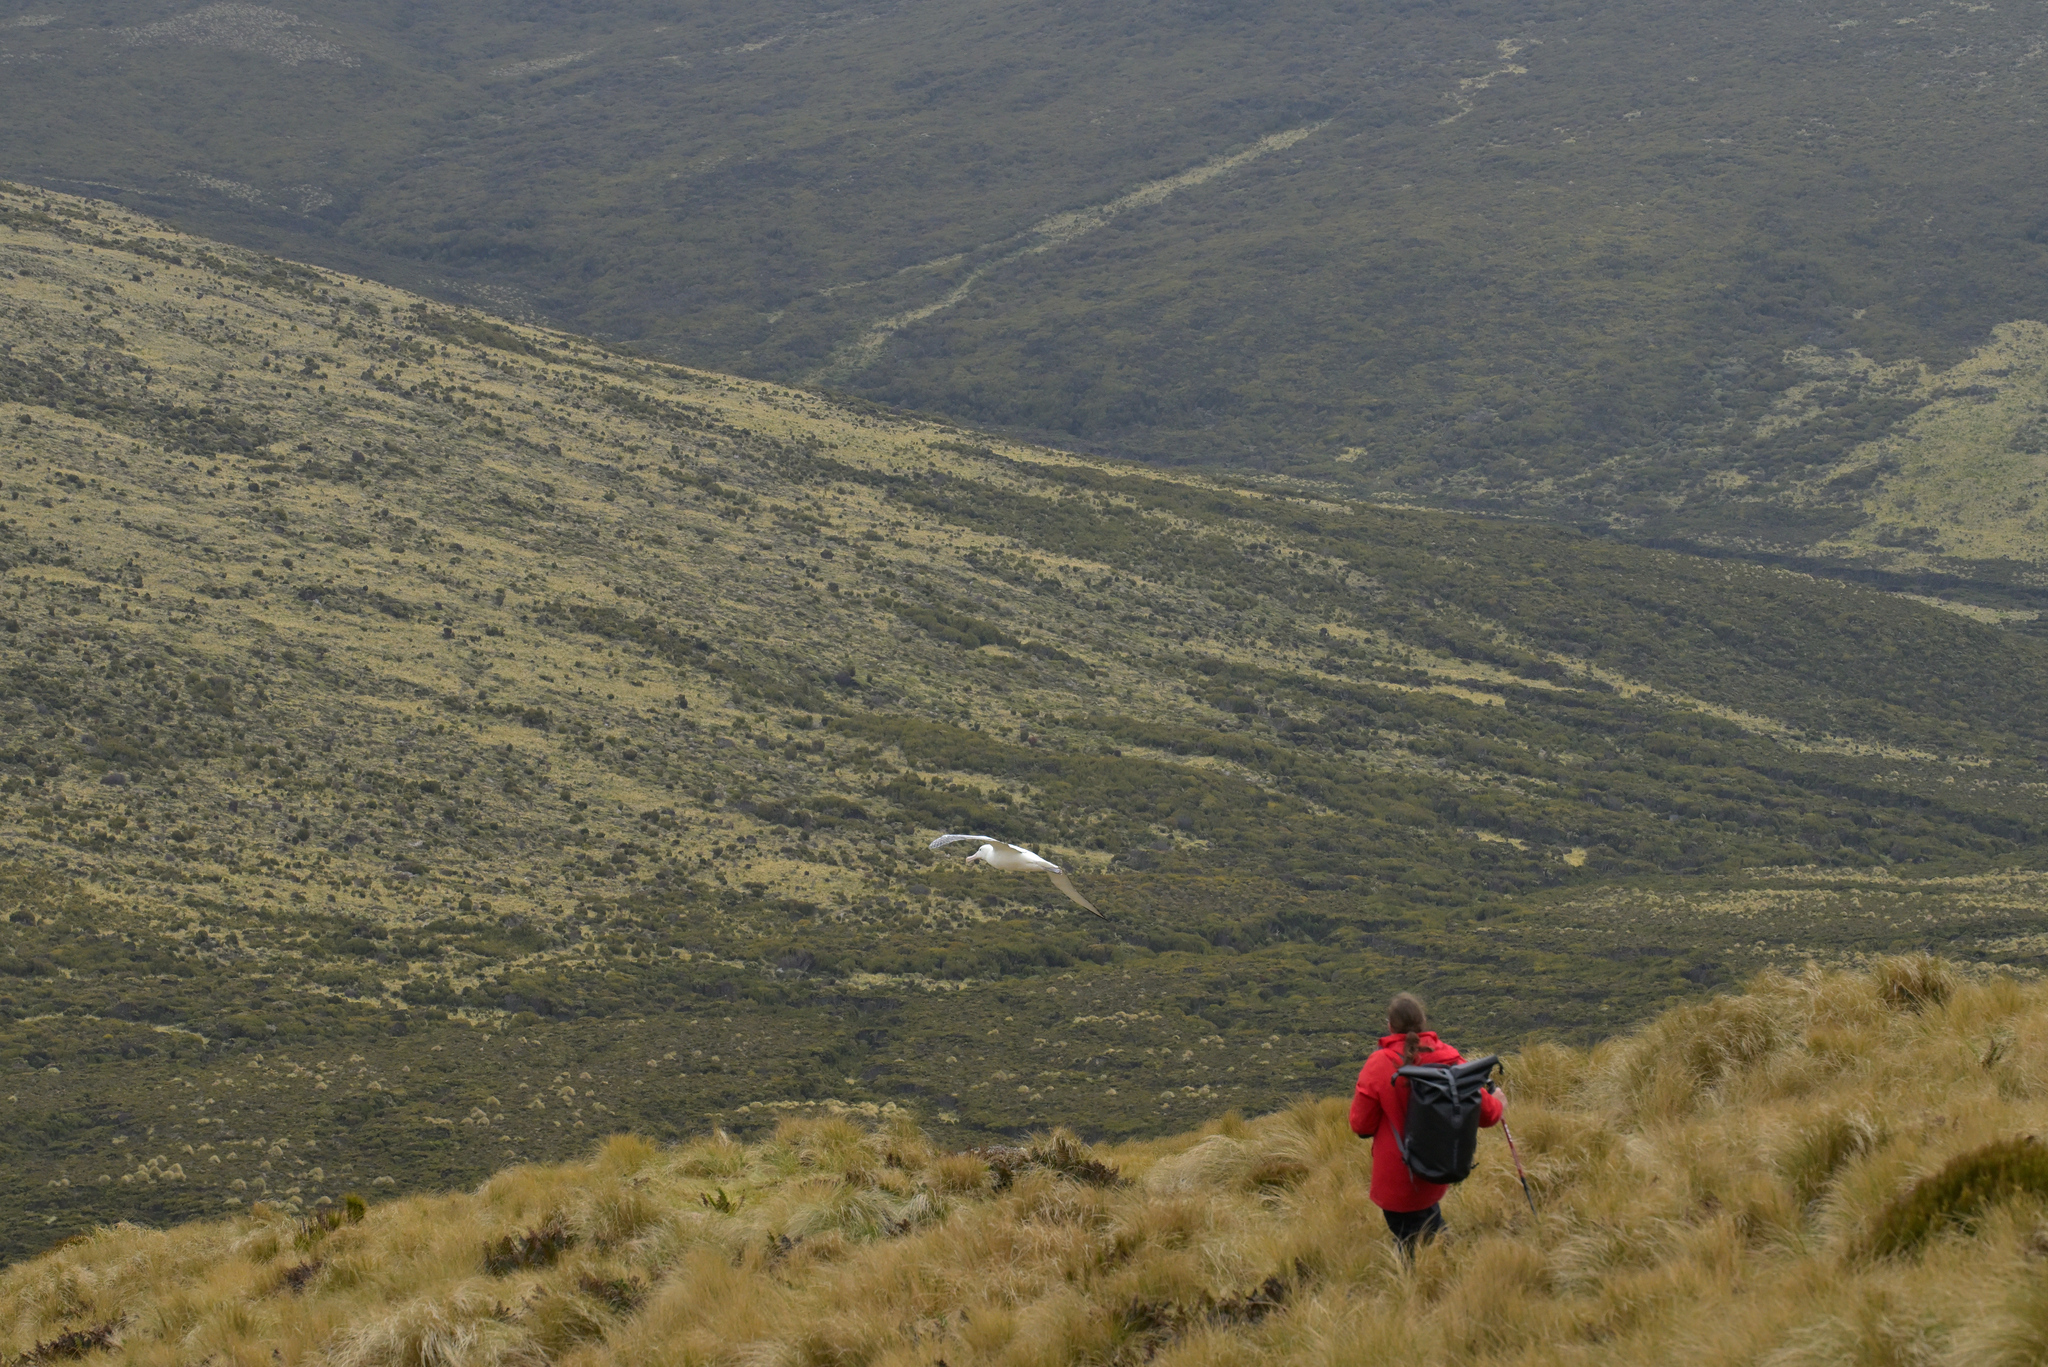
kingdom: Animalia
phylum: Chordata
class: Aves
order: Procellariiformes
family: Diomedeidae
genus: Diomedea
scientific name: Diomedea epomophora
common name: Southern royal albatross
